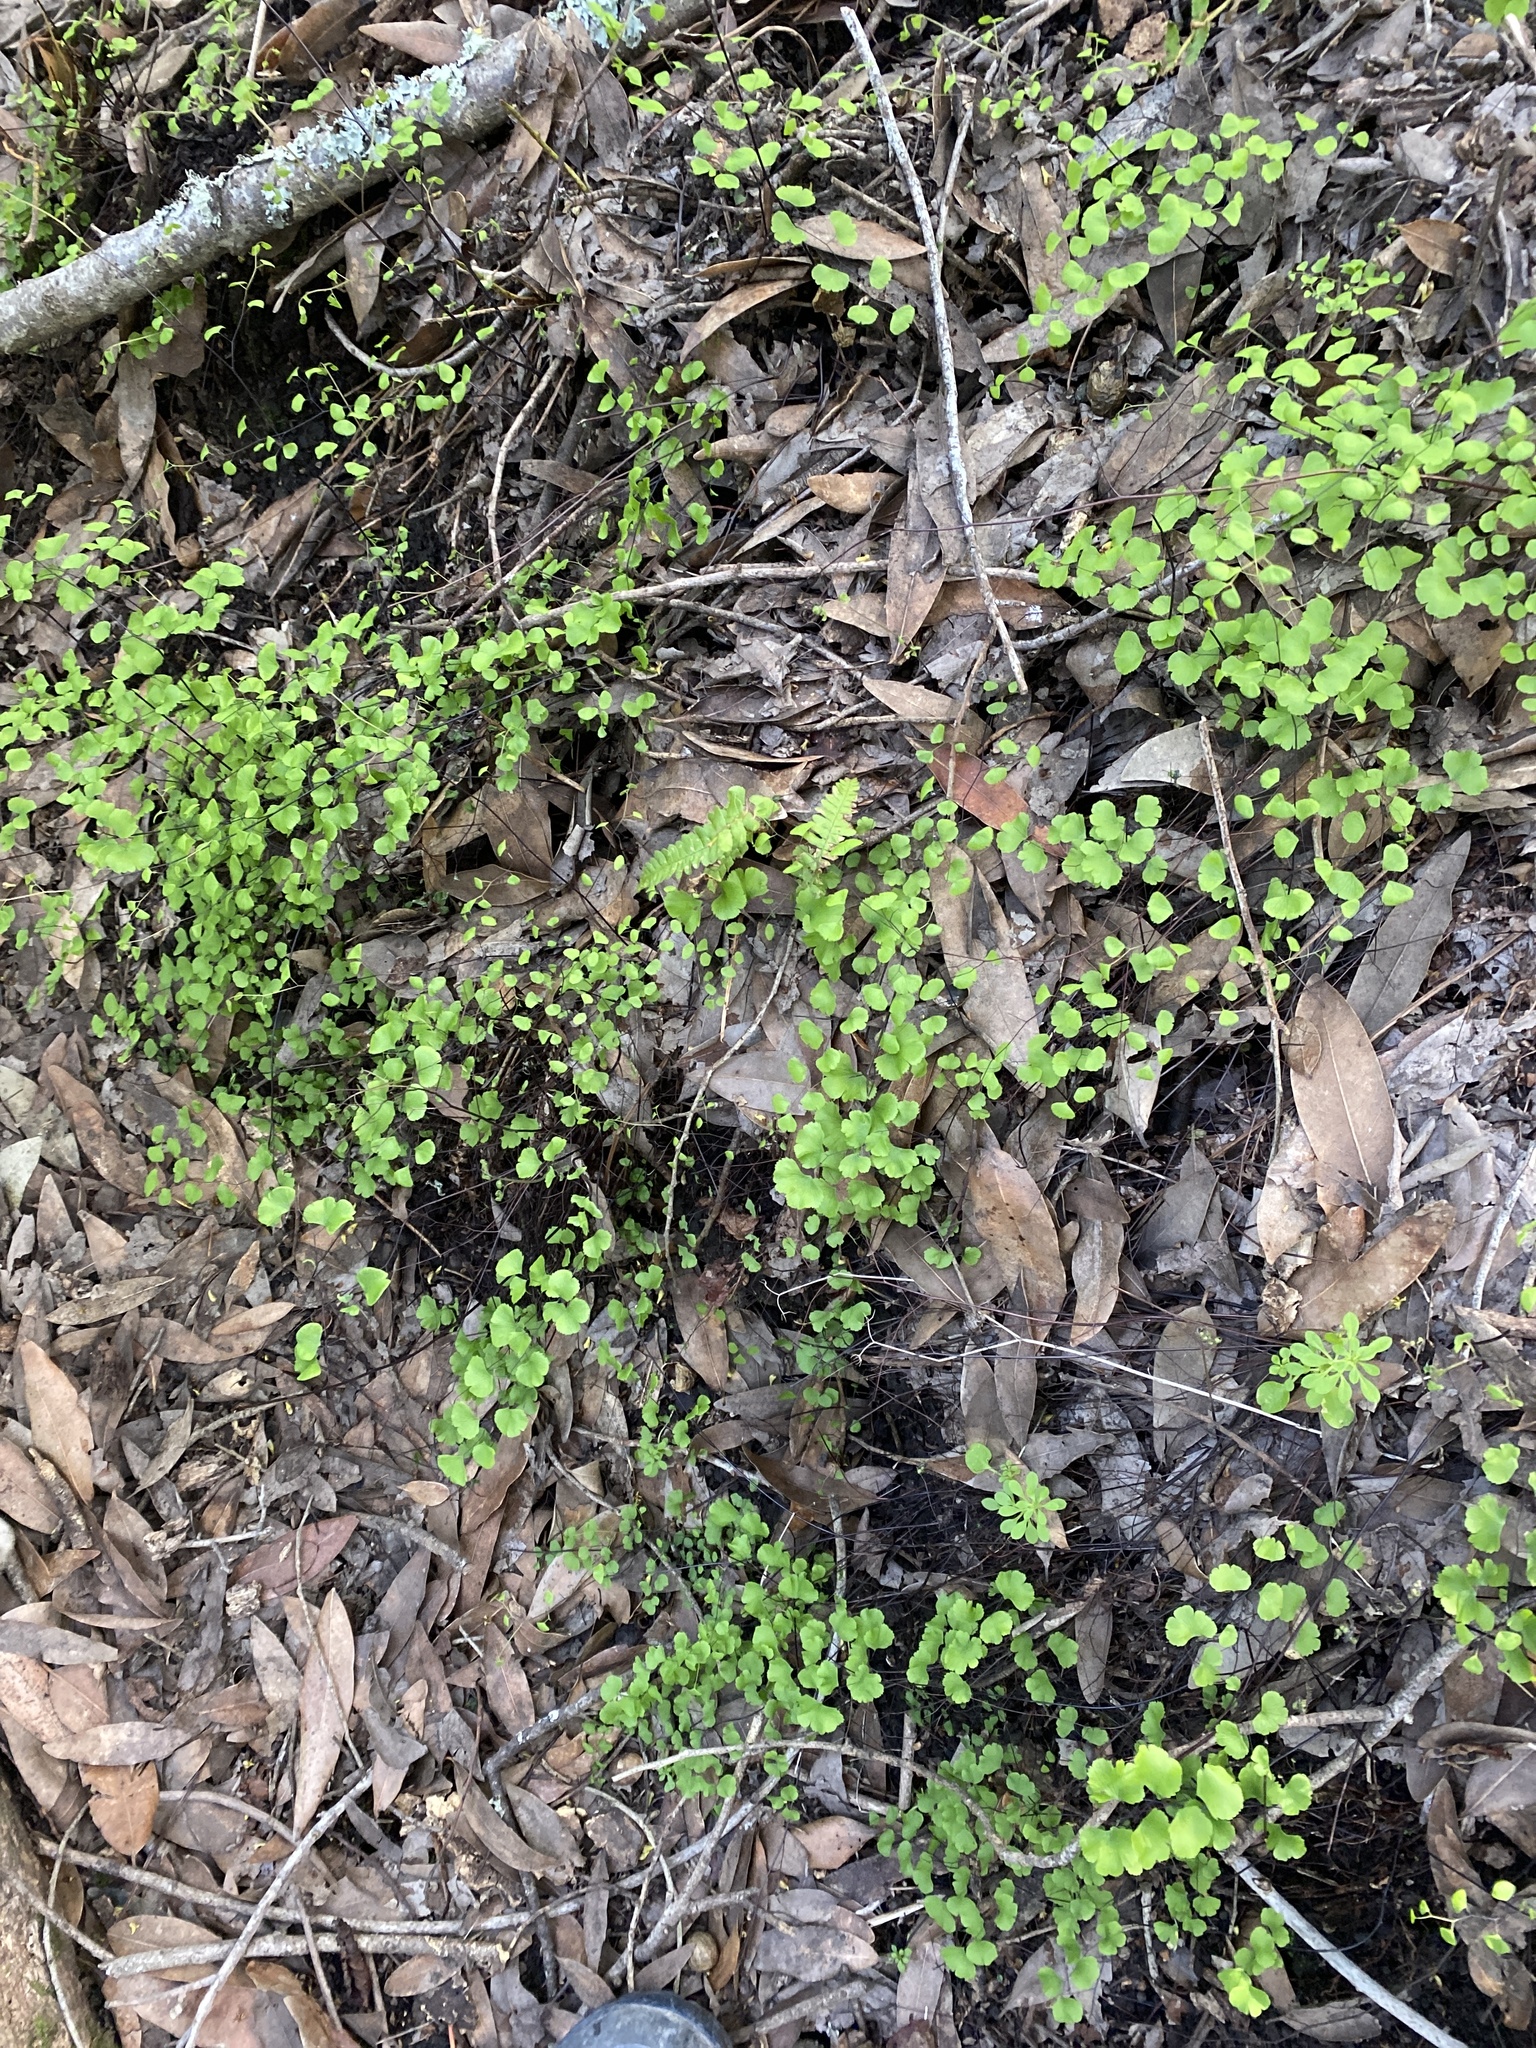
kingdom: Plantae
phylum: Tracheophyta
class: Polypodiopsida
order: Polypodiales
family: Pteridaceae
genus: Adiantum
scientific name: Adiantum jordanii
